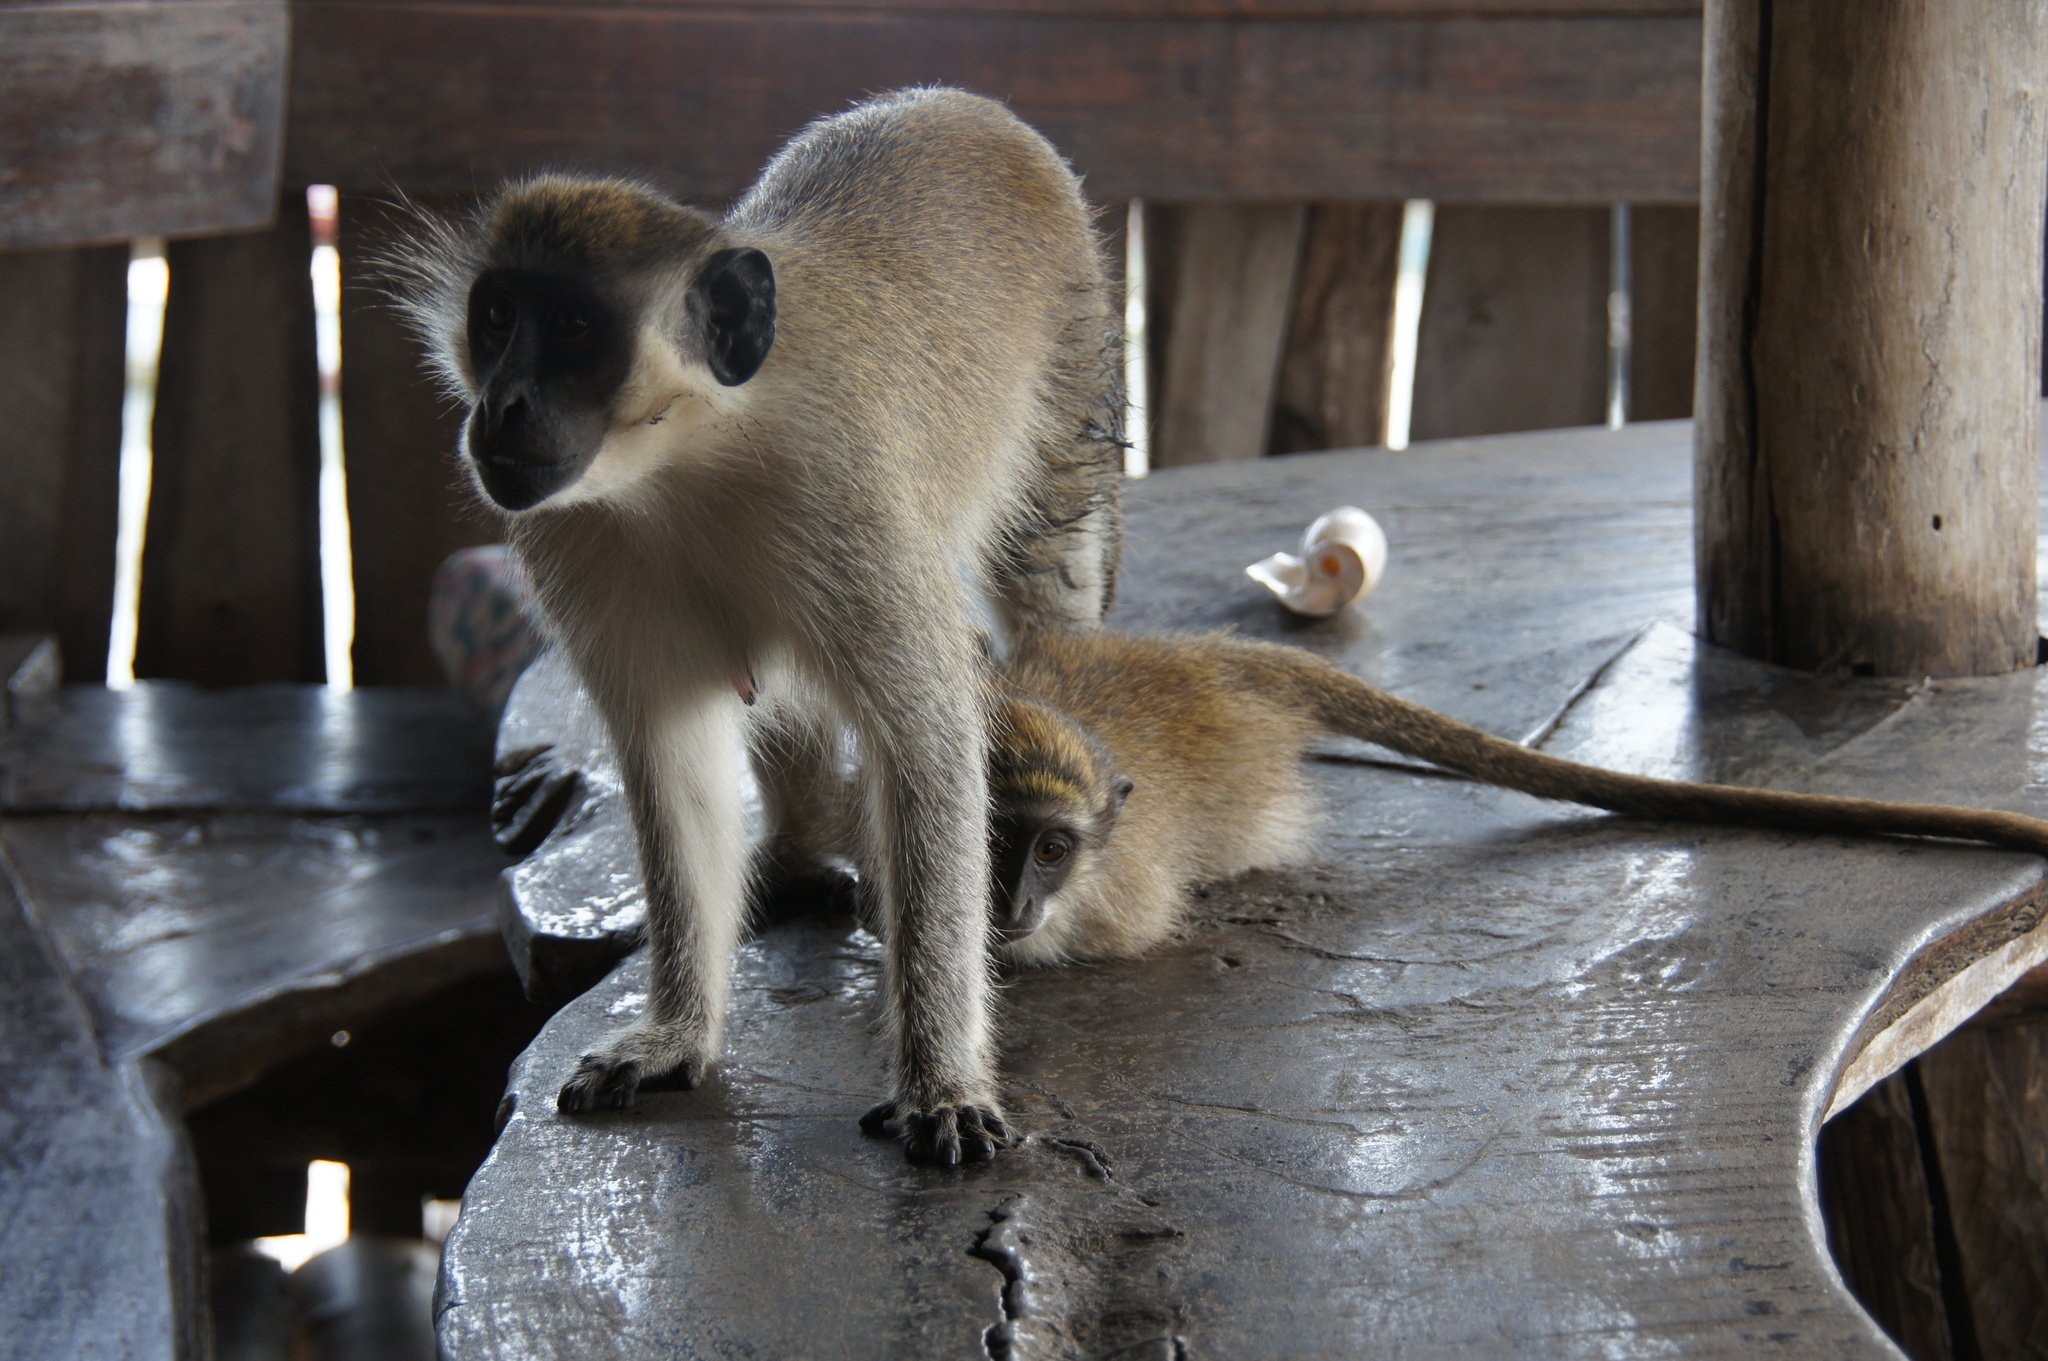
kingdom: Animalia
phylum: Chordata
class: Mammalia
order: Primates
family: Cercopithecidae
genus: Chlorocebus
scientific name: Chlorocebus sabaeus
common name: Green monkey
